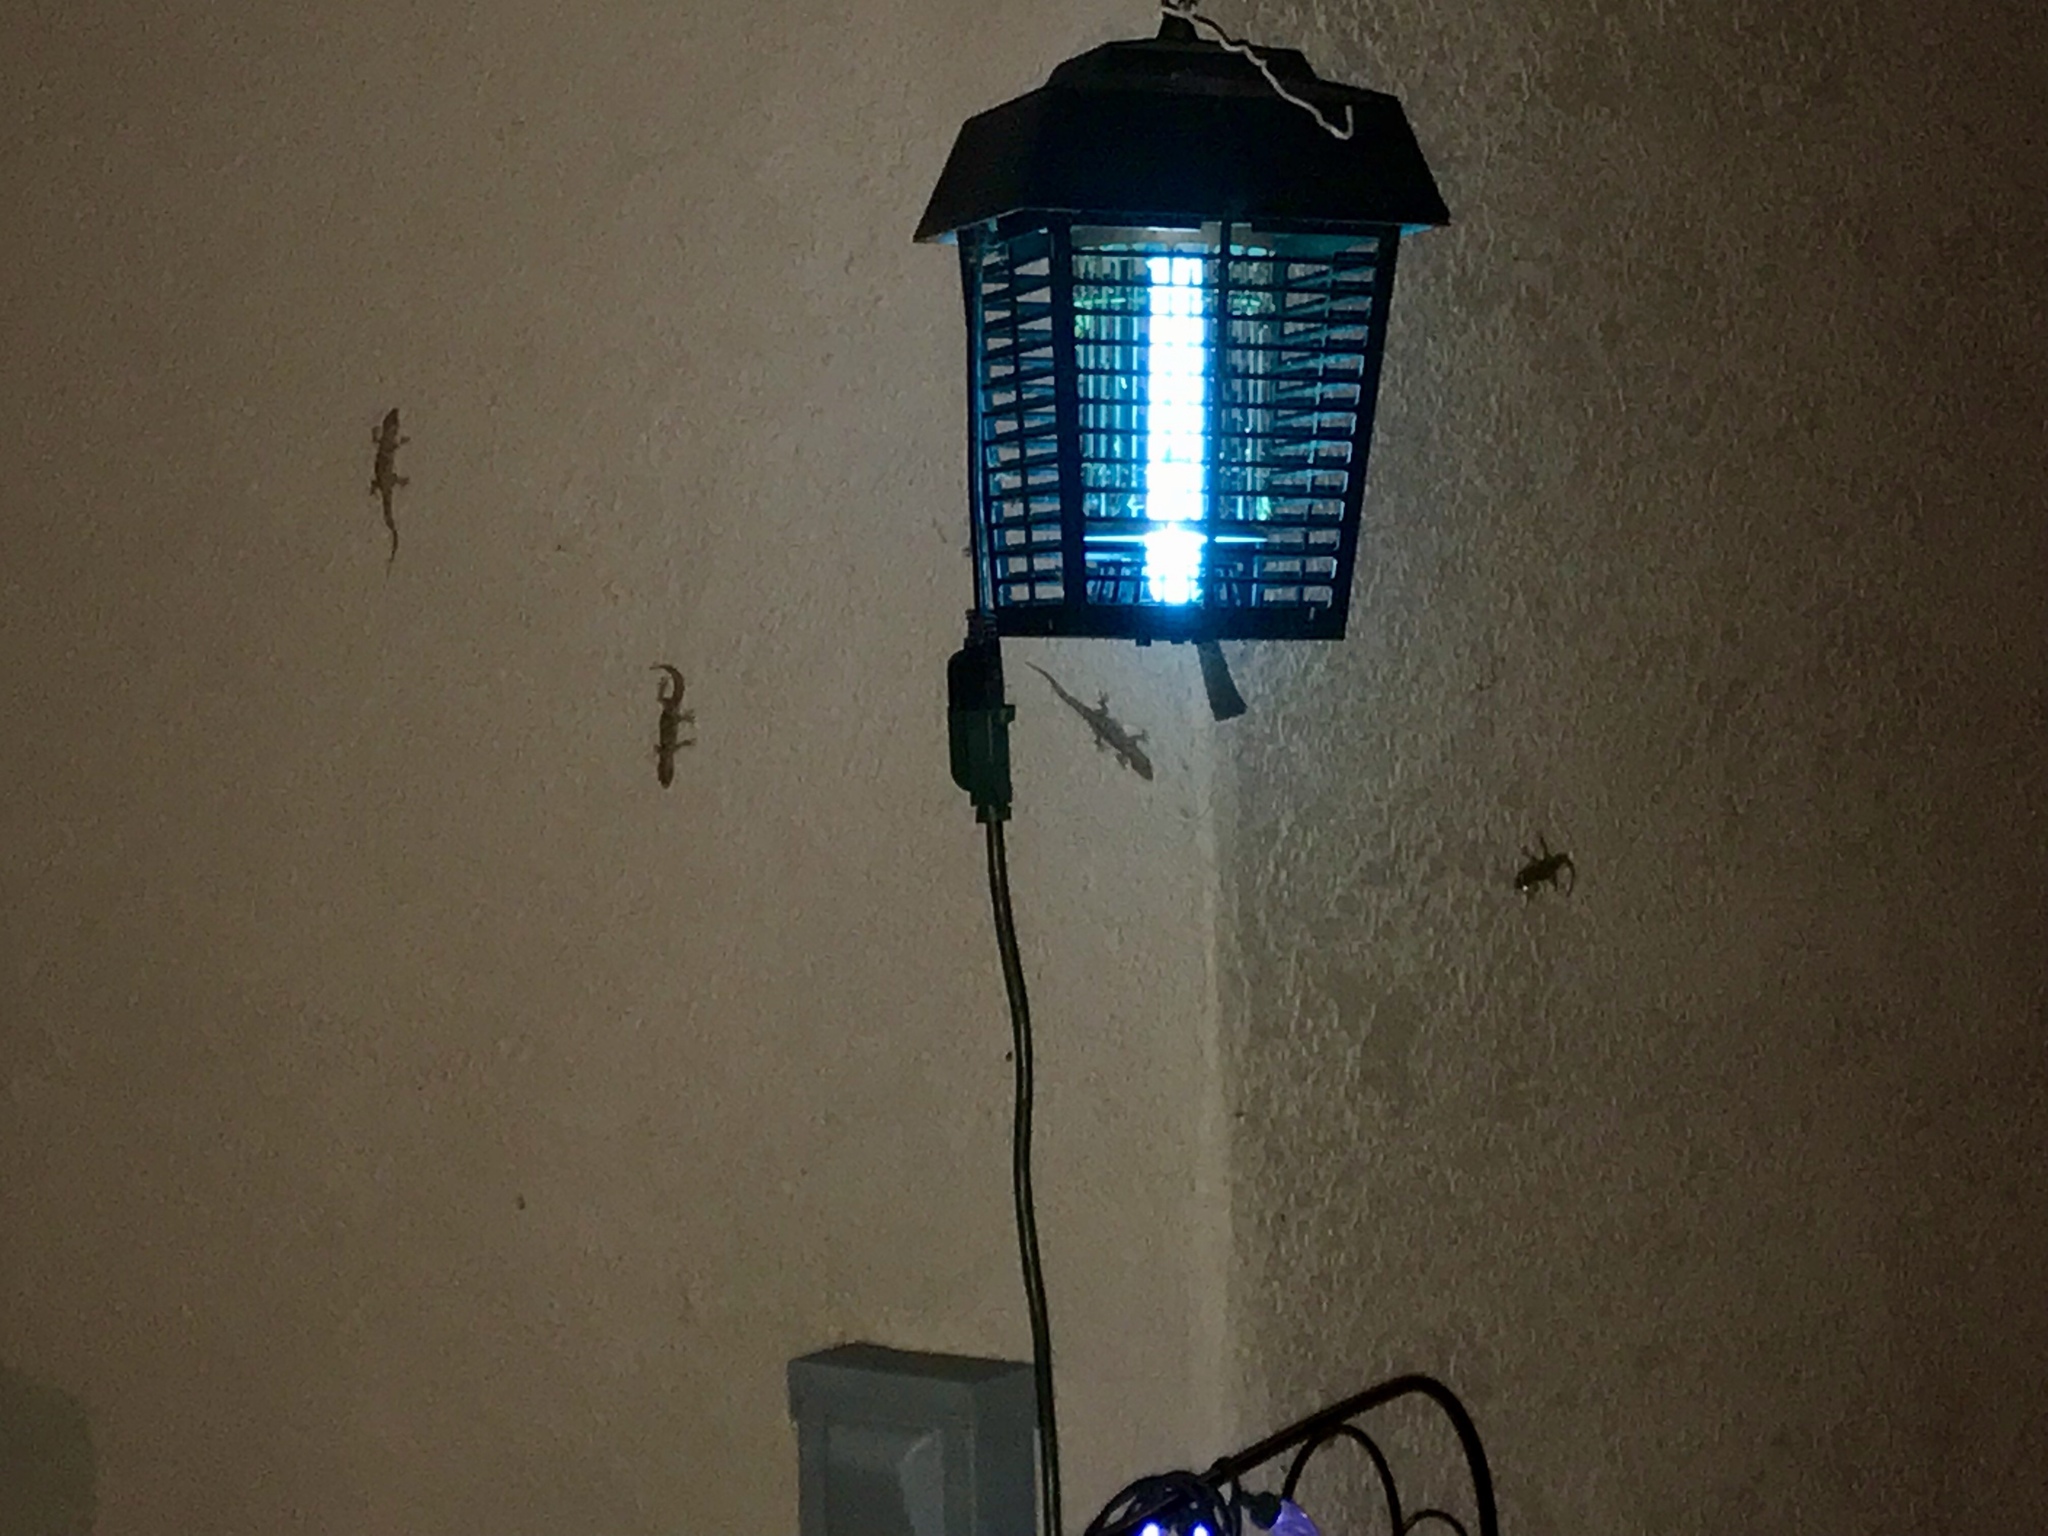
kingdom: Animalia
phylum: Chordata
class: Squamata
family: Gekkonidae
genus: Hemidactylus
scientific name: Hemidactylus turcicus
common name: Turkish gecko
